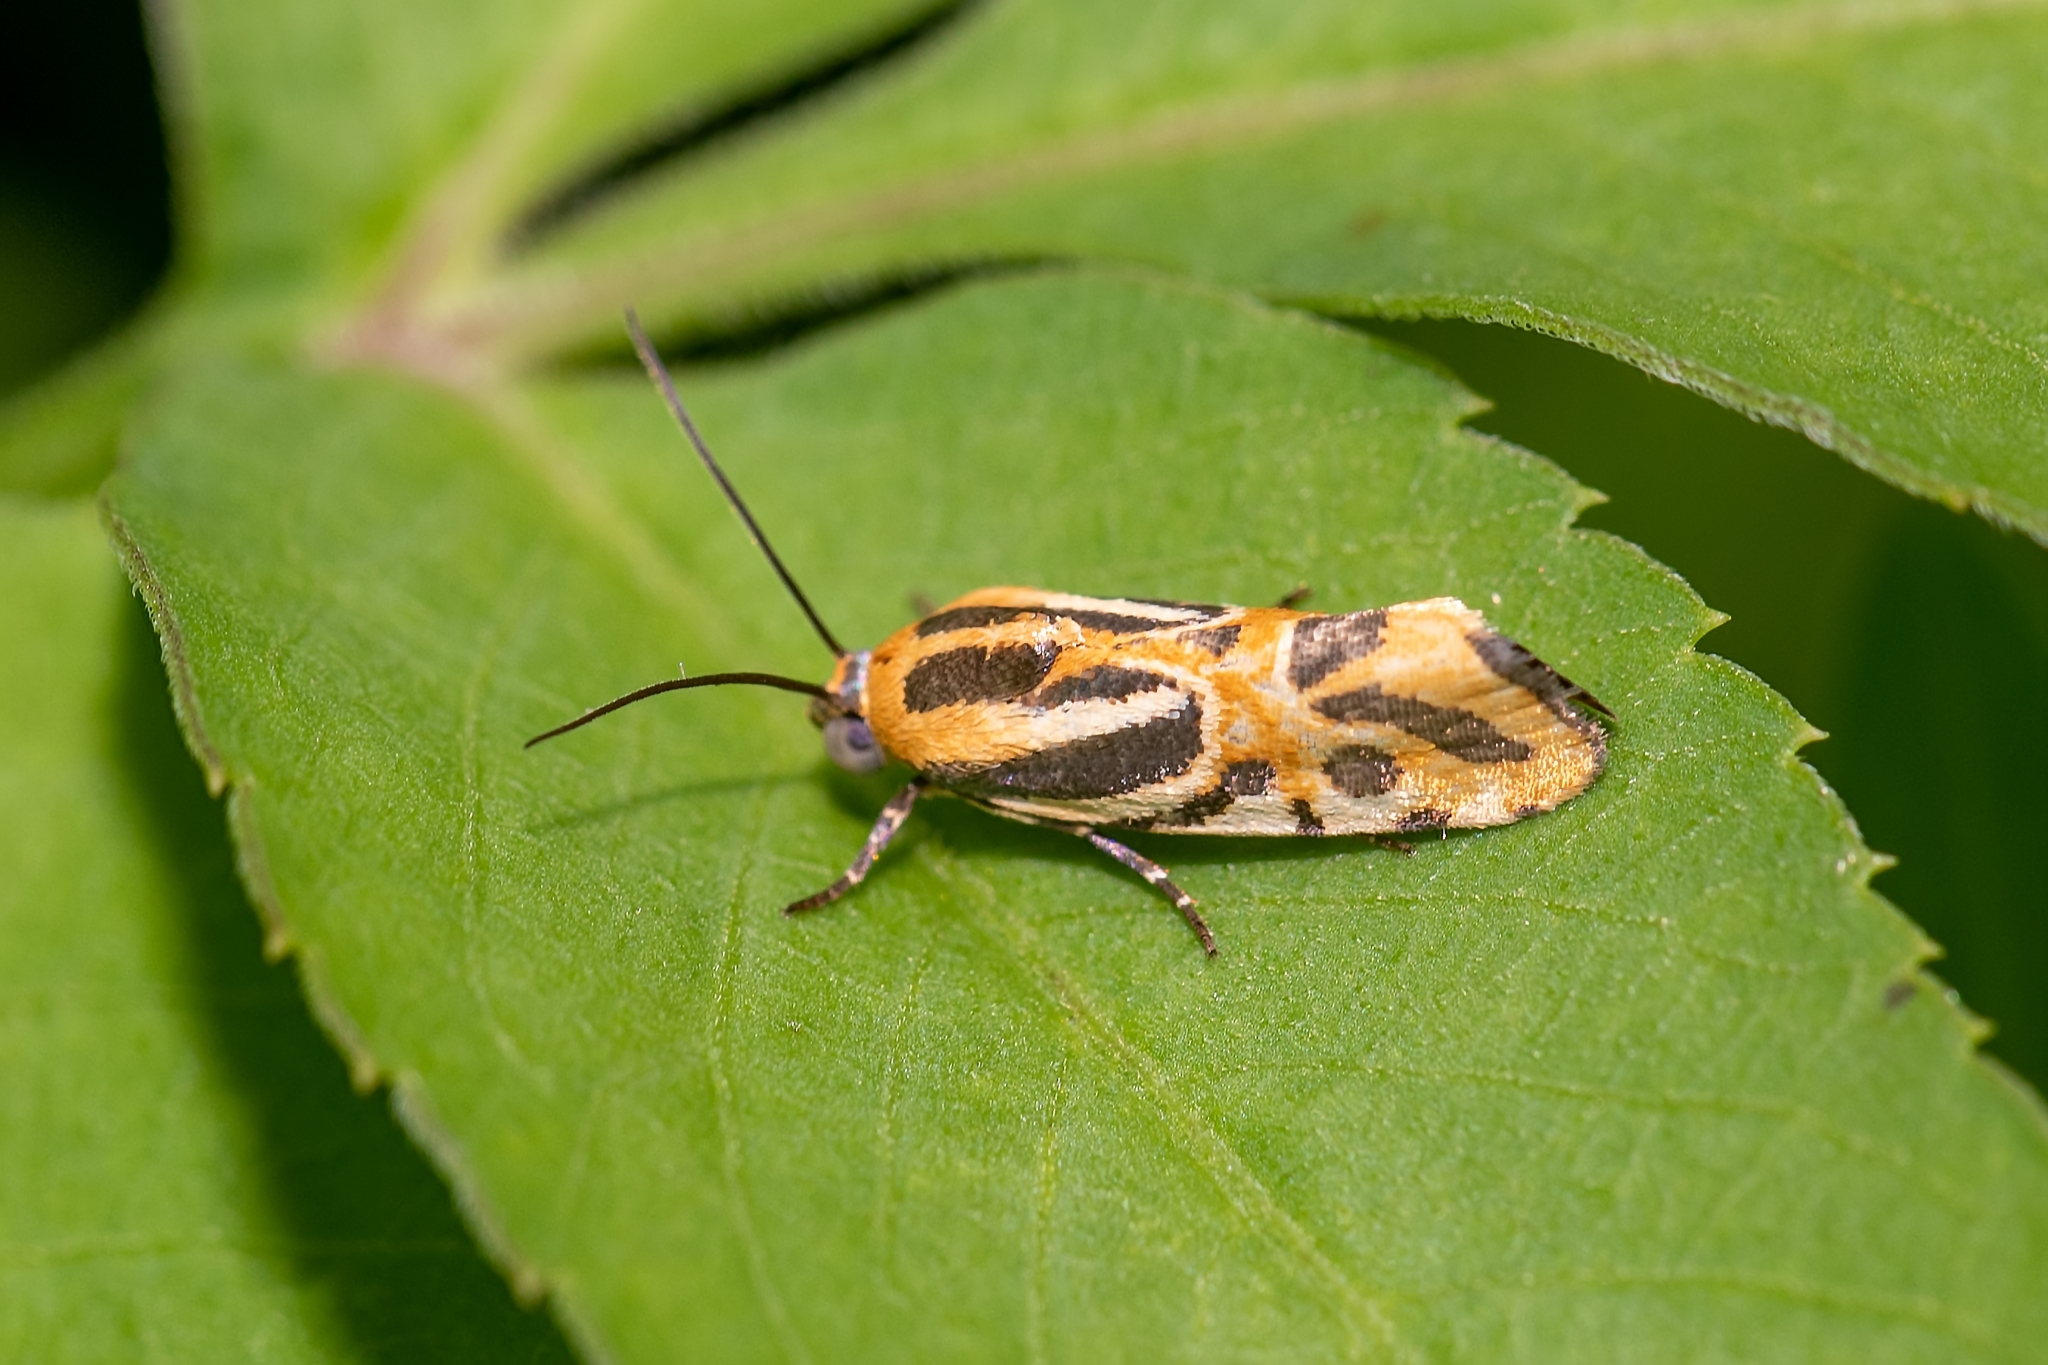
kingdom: Animalia
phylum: Arthropoda
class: Insecta
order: Lepidoptera
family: Noctuidae
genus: Acontia
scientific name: Acontia onagrus
